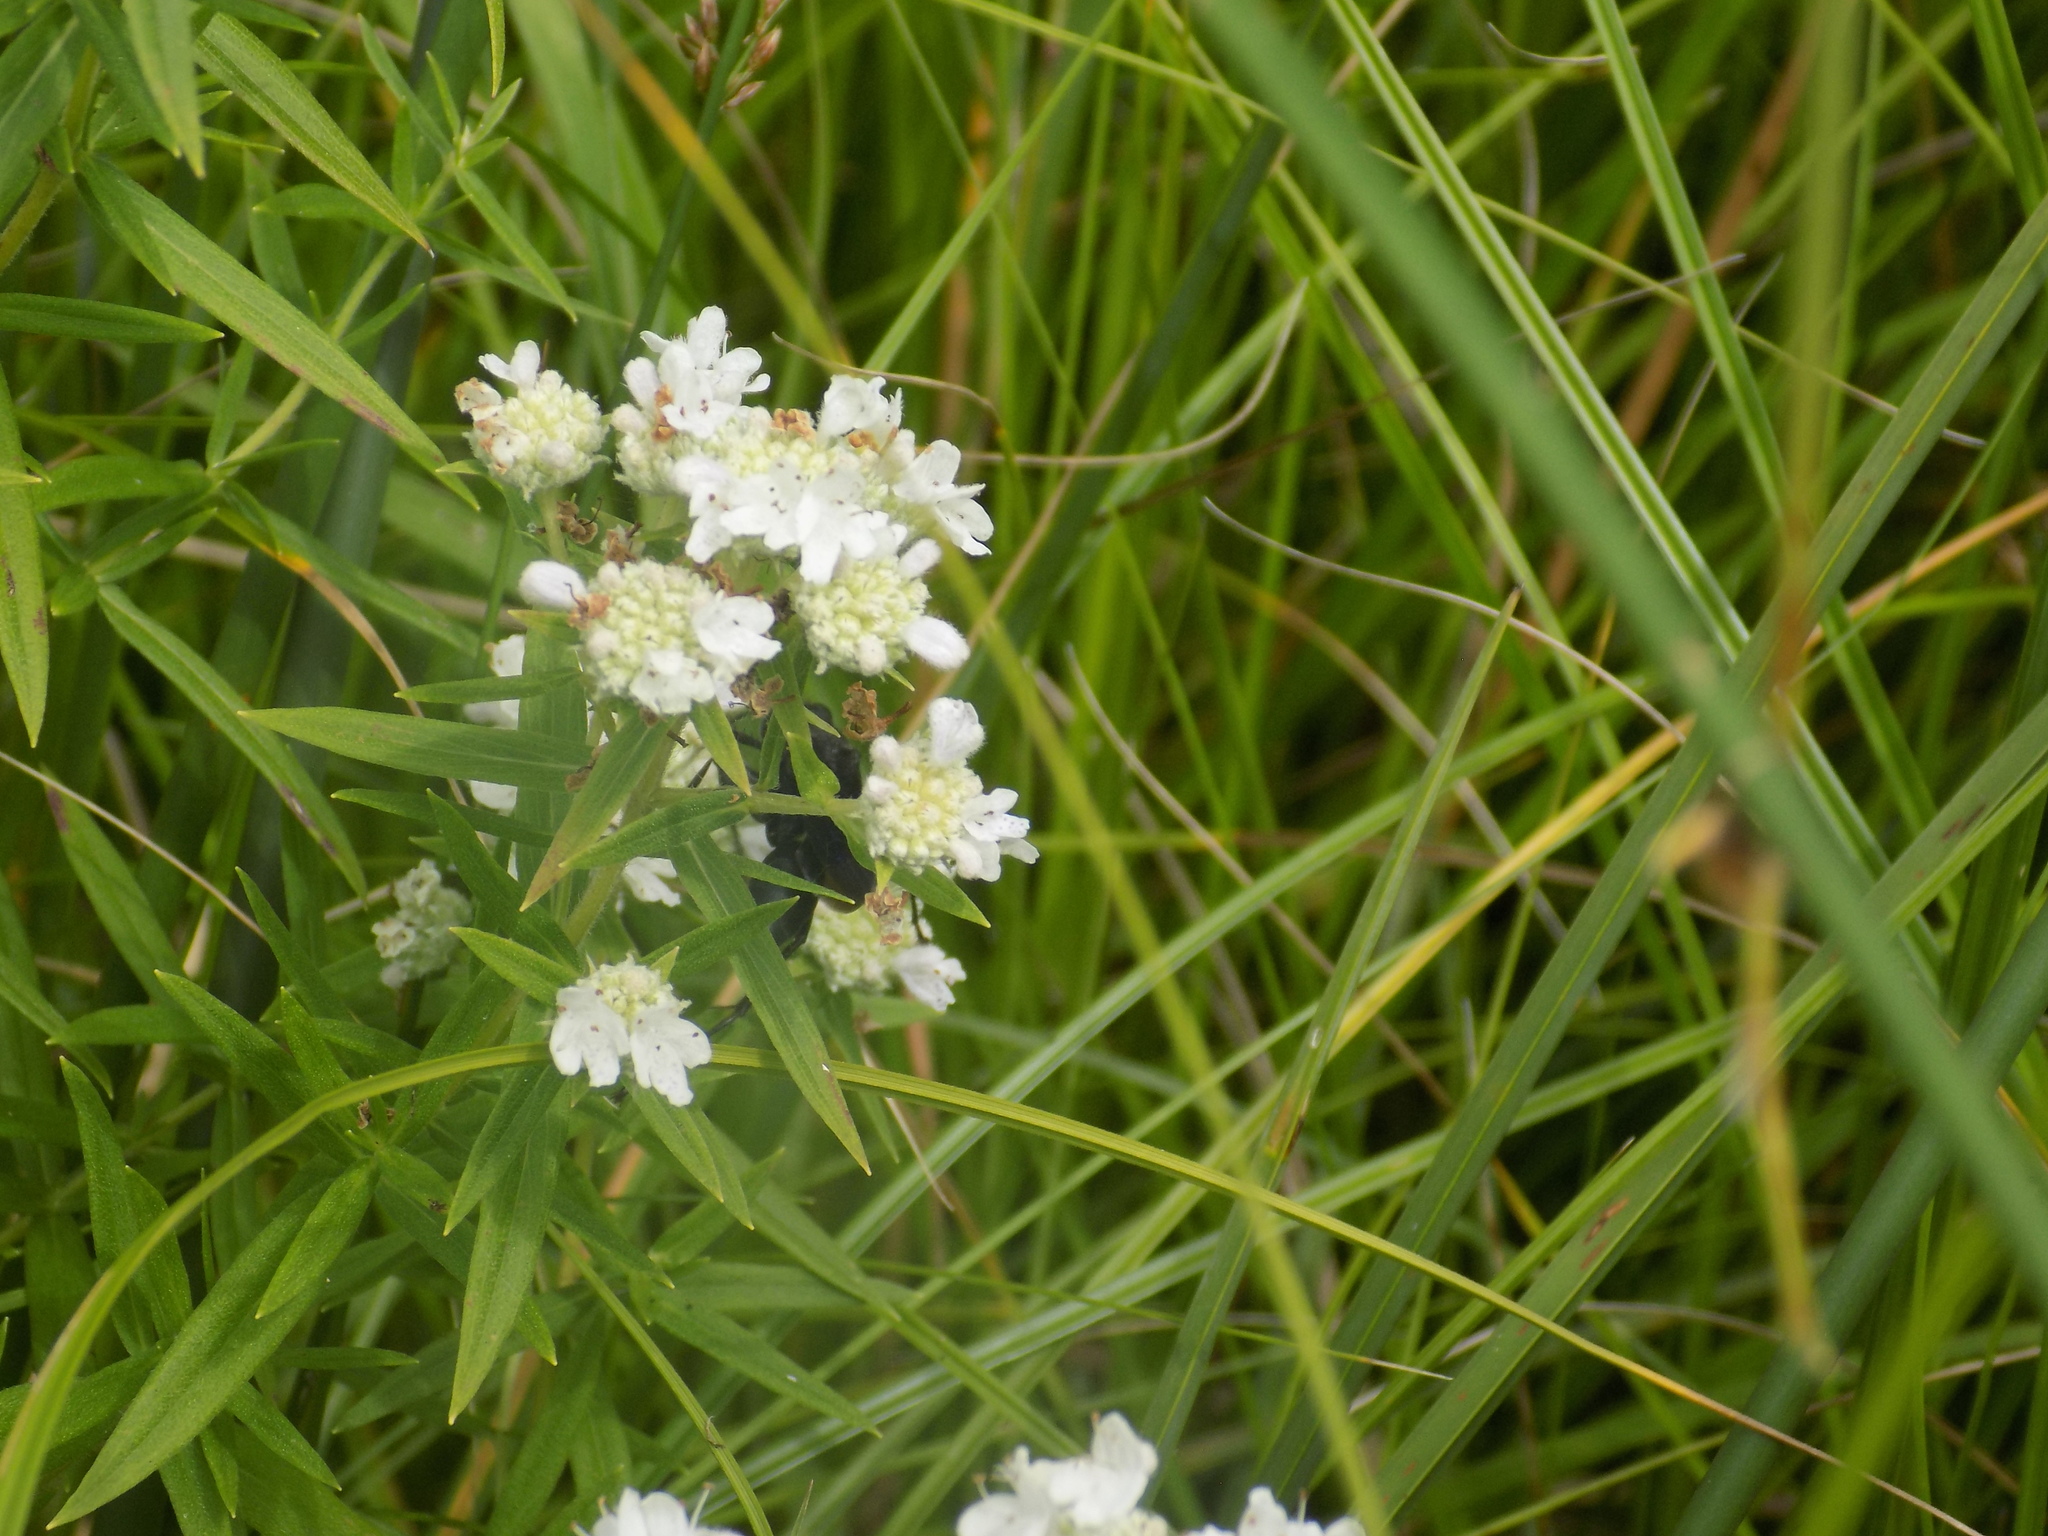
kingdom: Plantae
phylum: Tracheophyta
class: Magnoliopsida
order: Lamiales
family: Lamiaceae
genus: Pycnanthemum
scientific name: Pycnanthemum virginianum
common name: Virginia mountain-mint
